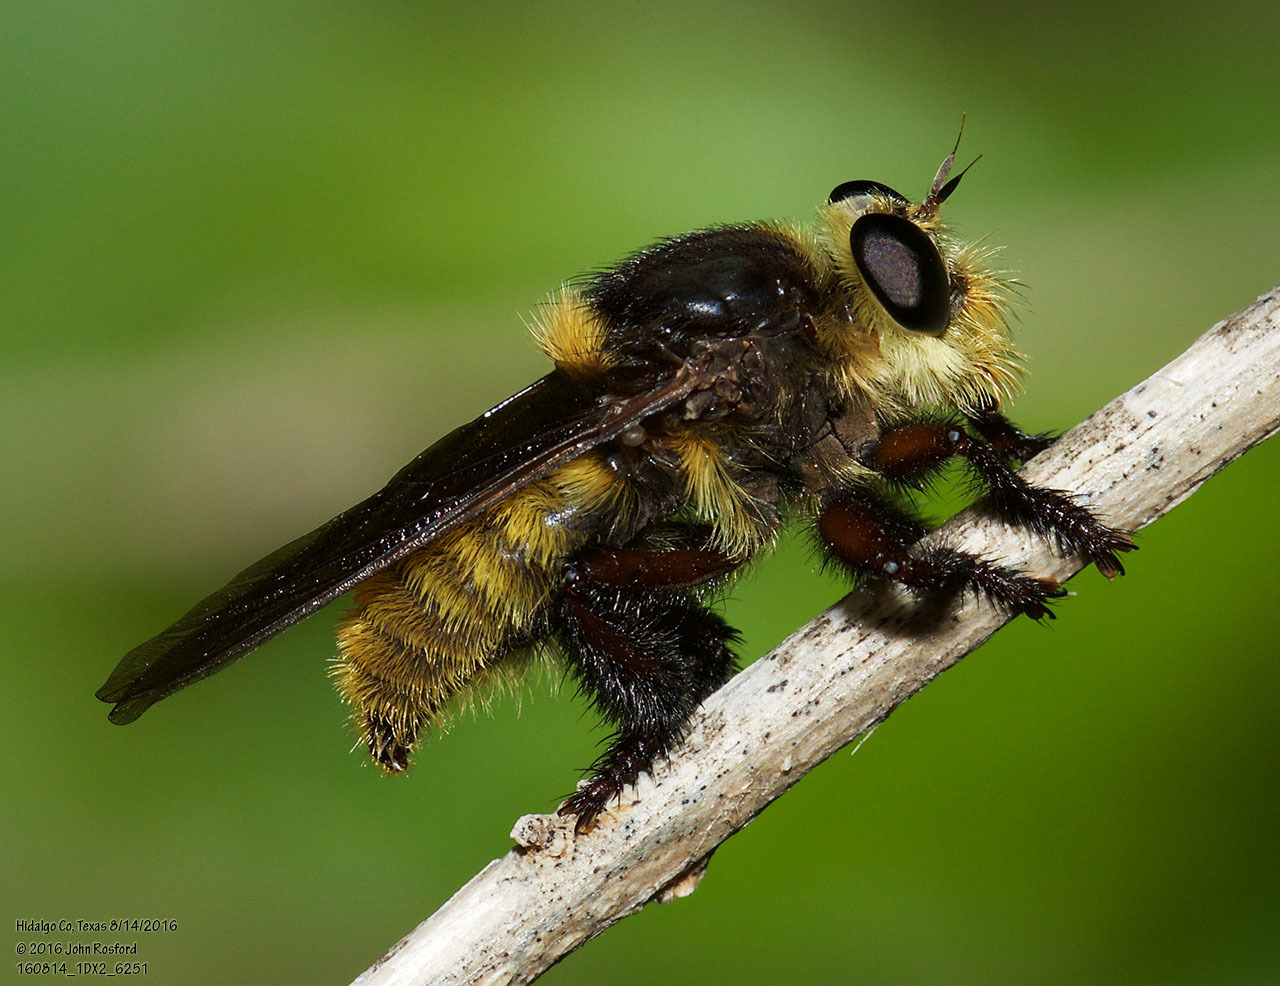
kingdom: Animalia
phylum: Arthropoda
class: Insecta
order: Diptera
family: Asilidae
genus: Mallophora
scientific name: Mallophora fautrix
